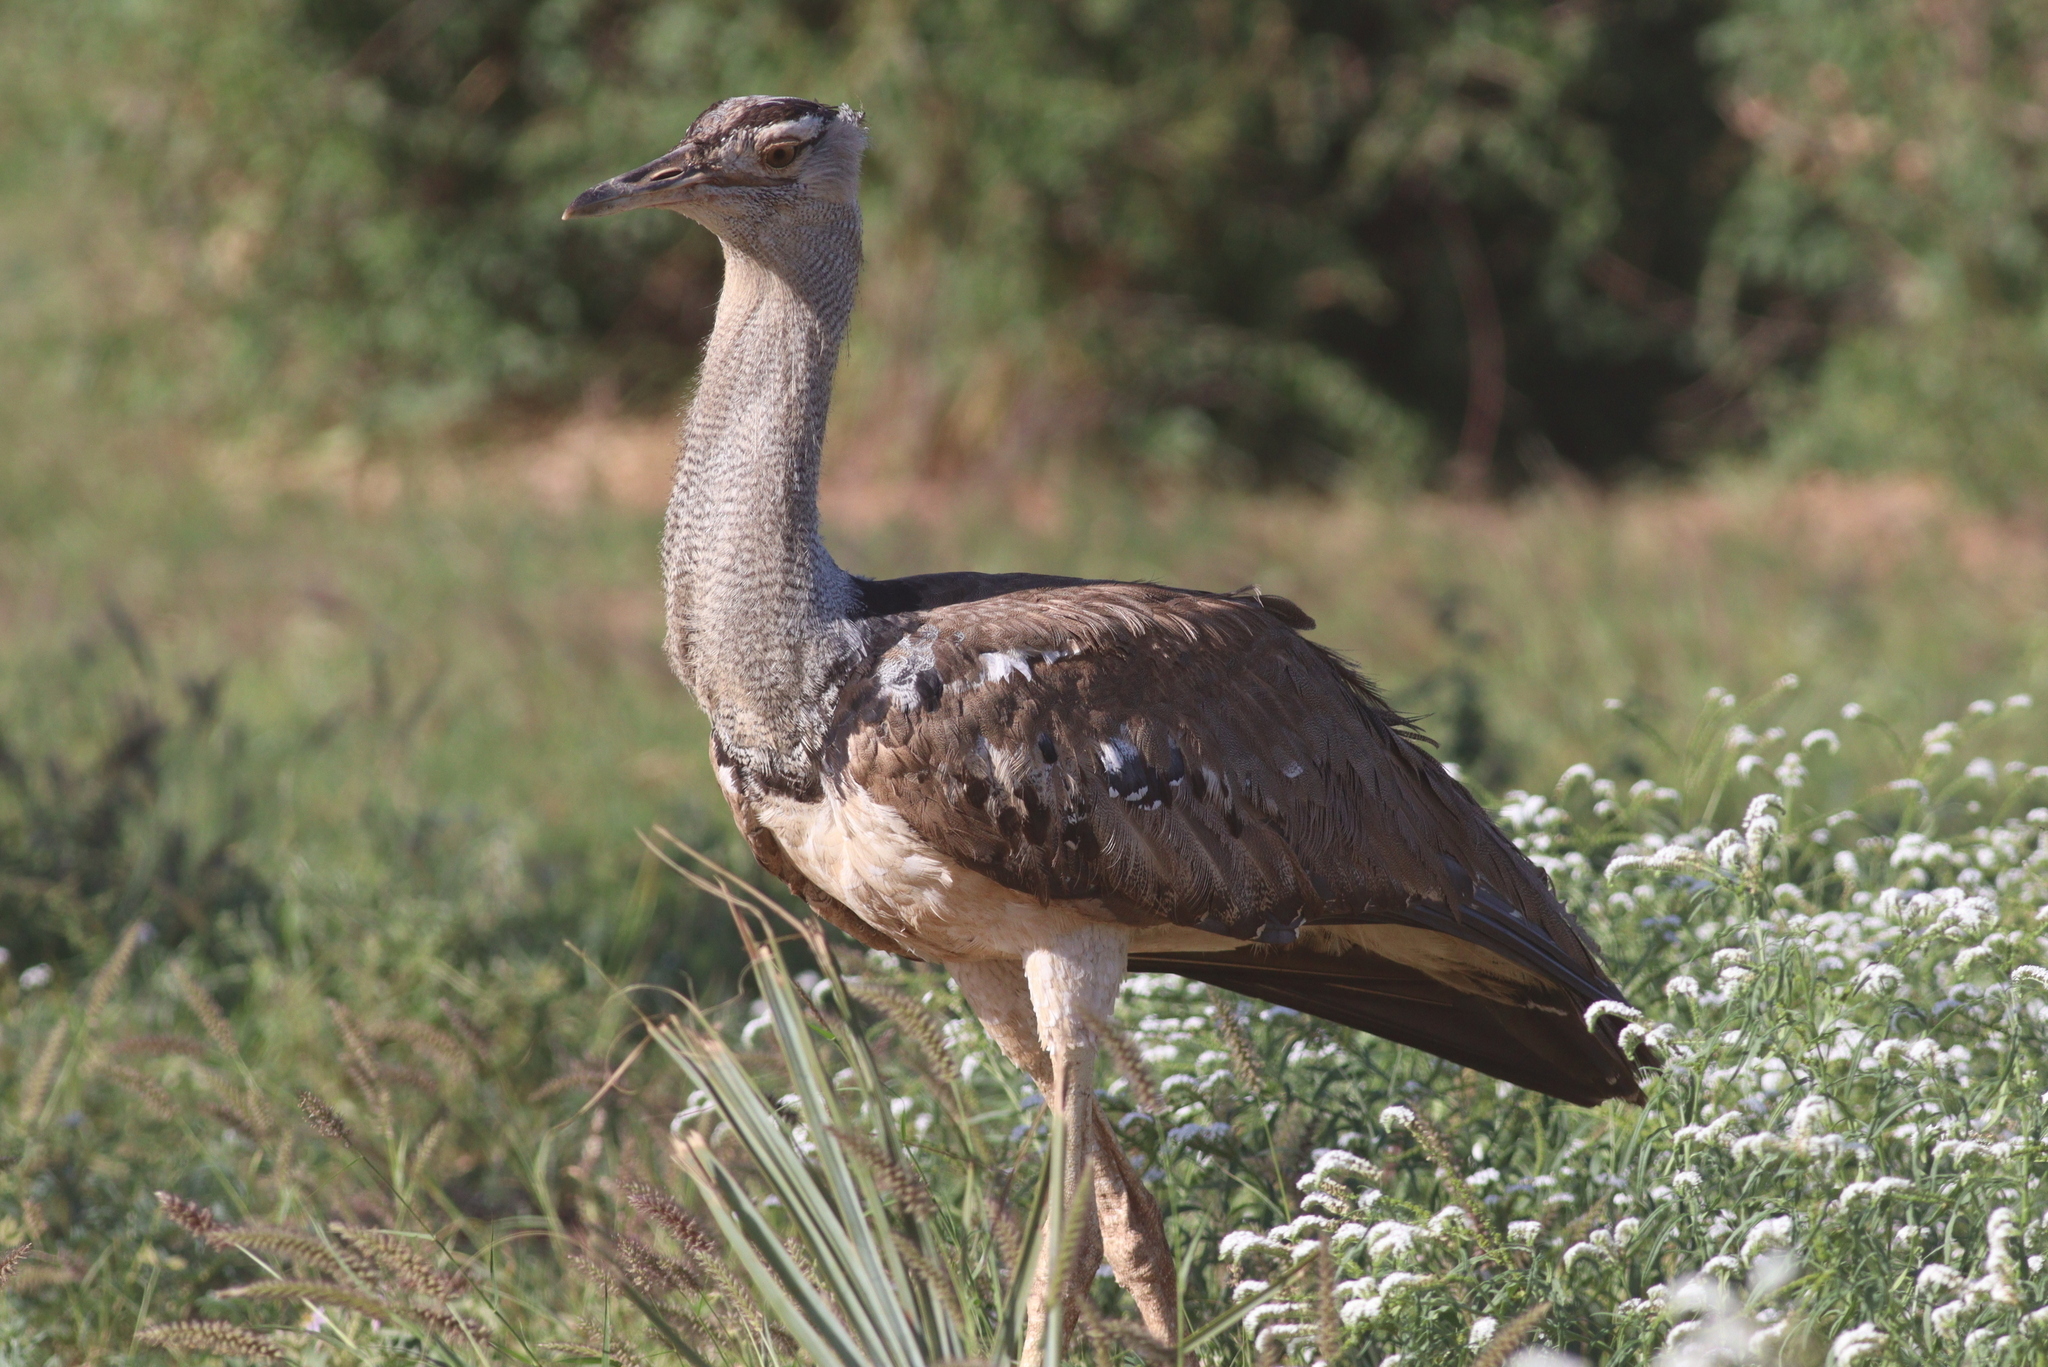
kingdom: Animalia
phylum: Chordata
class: Aves
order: Otidiformes
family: Otididae
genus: Ardeotis
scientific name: Ardeotis kori
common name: Kori bustard
